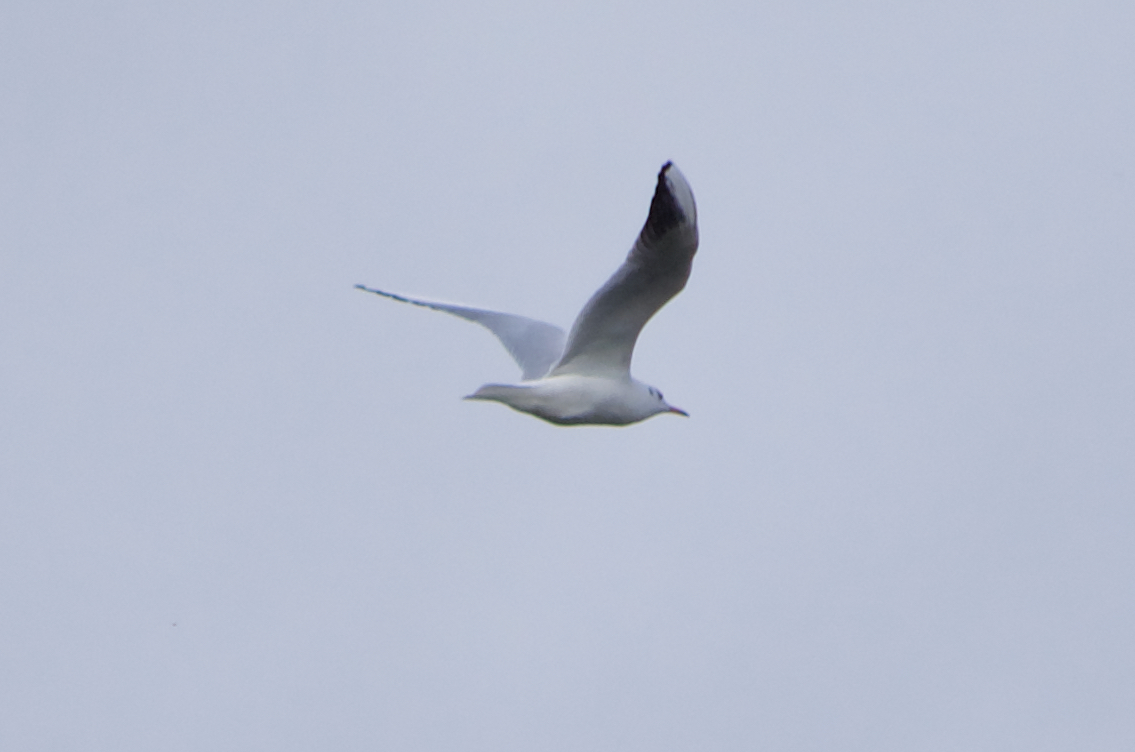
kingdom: Animalia
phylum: Chordata
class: Aves
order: Charadriiformes
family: Laridae
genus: Chroicocephalus
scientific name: Chroicocephalus ridibundus
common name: Black-headed gull
